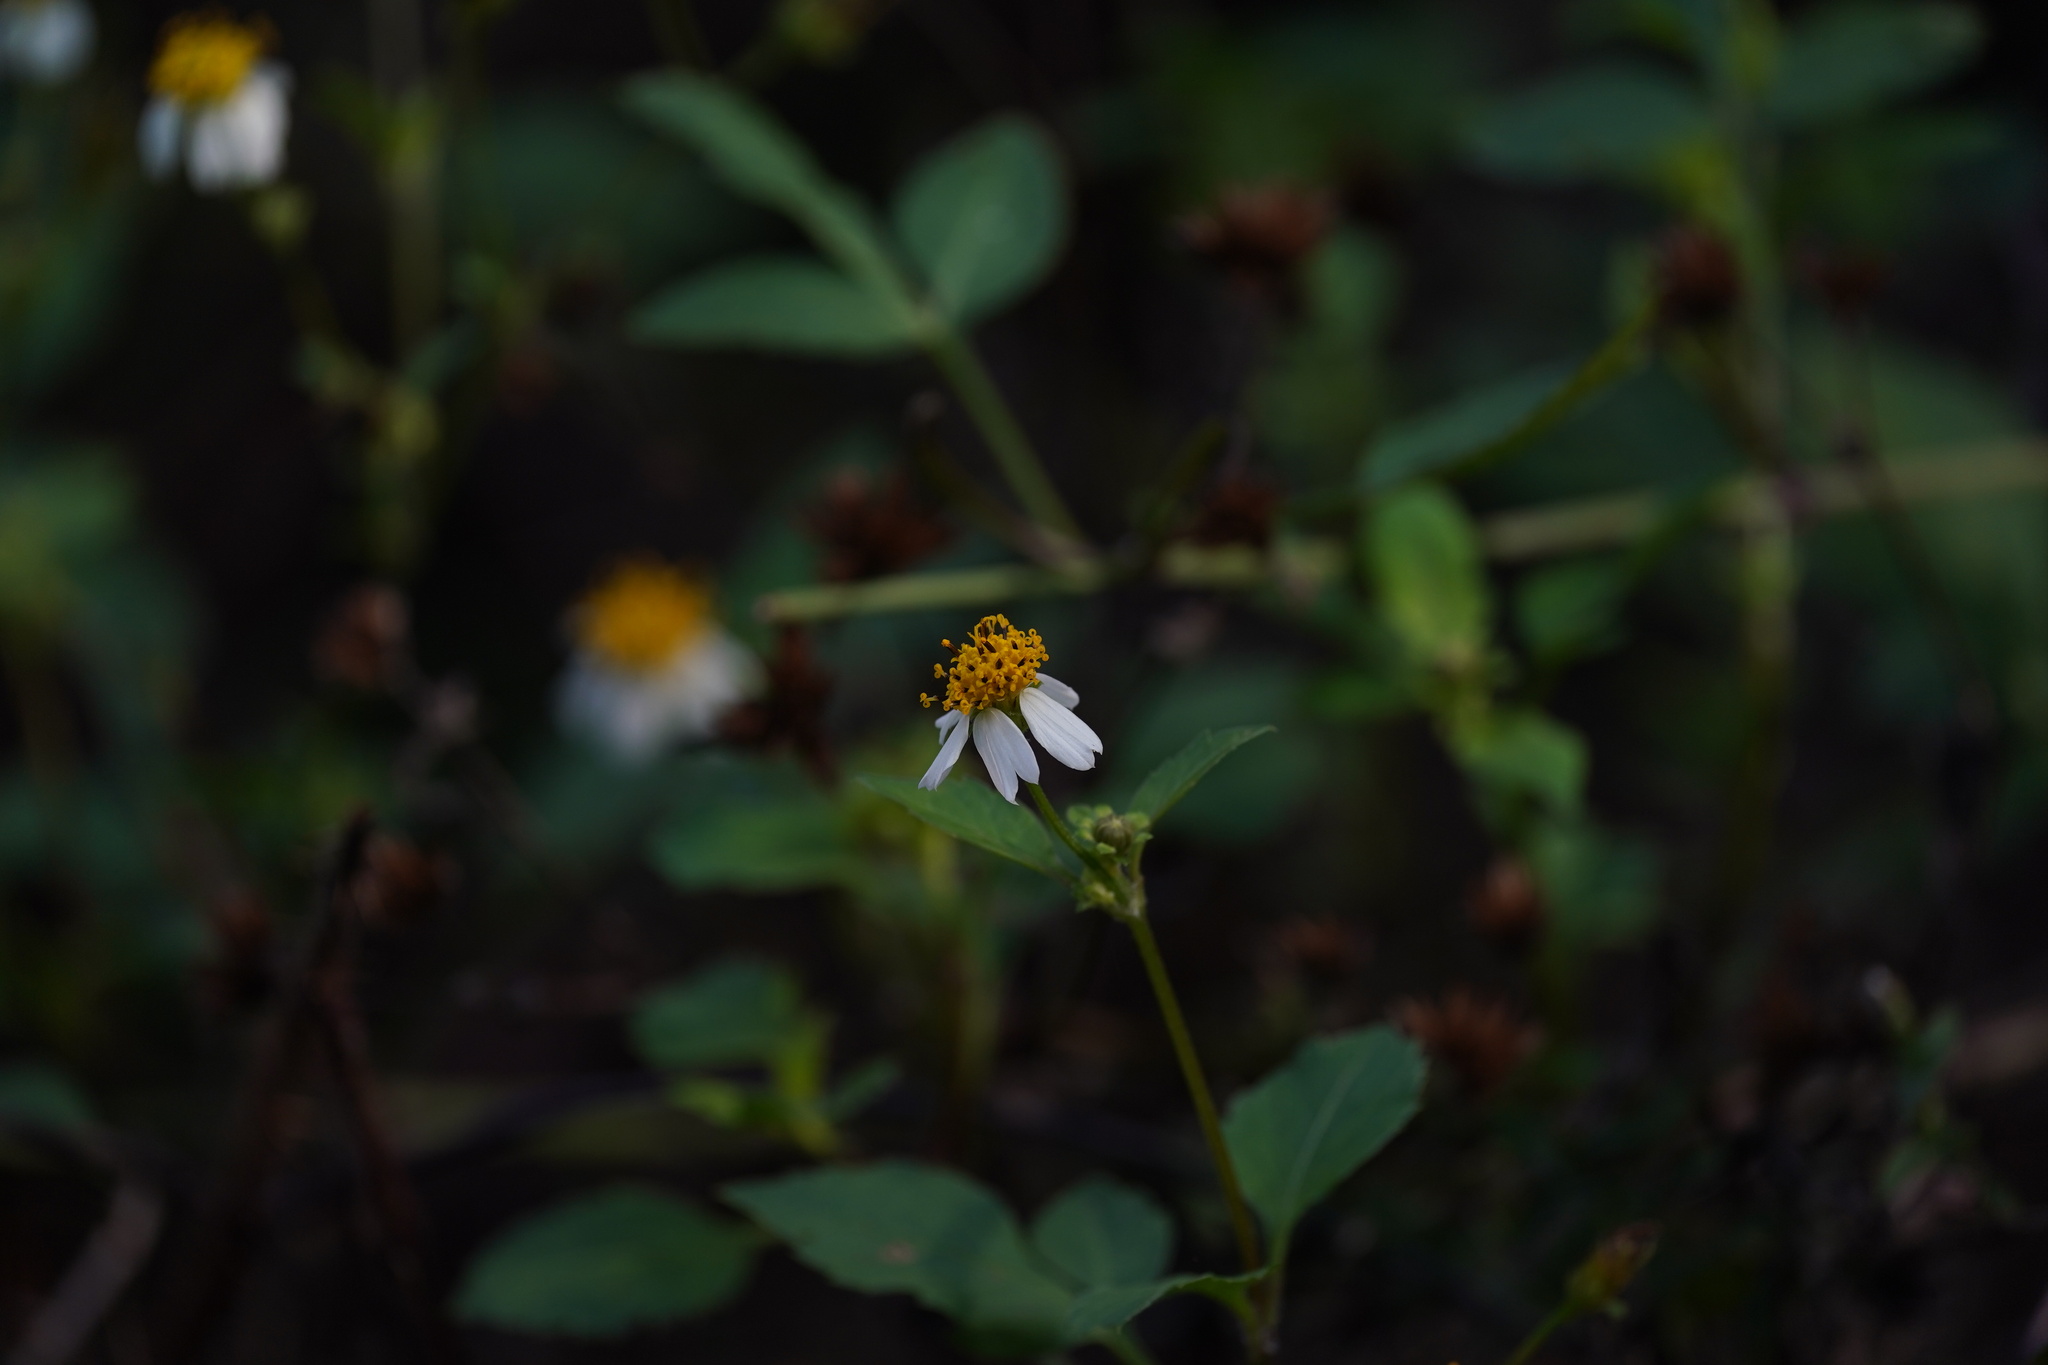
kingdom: Plantae
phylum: Tracheophyta
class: Magnoliopsida
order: Asterales
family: Asteraceae
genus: Bidens
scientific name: Bidens alba
